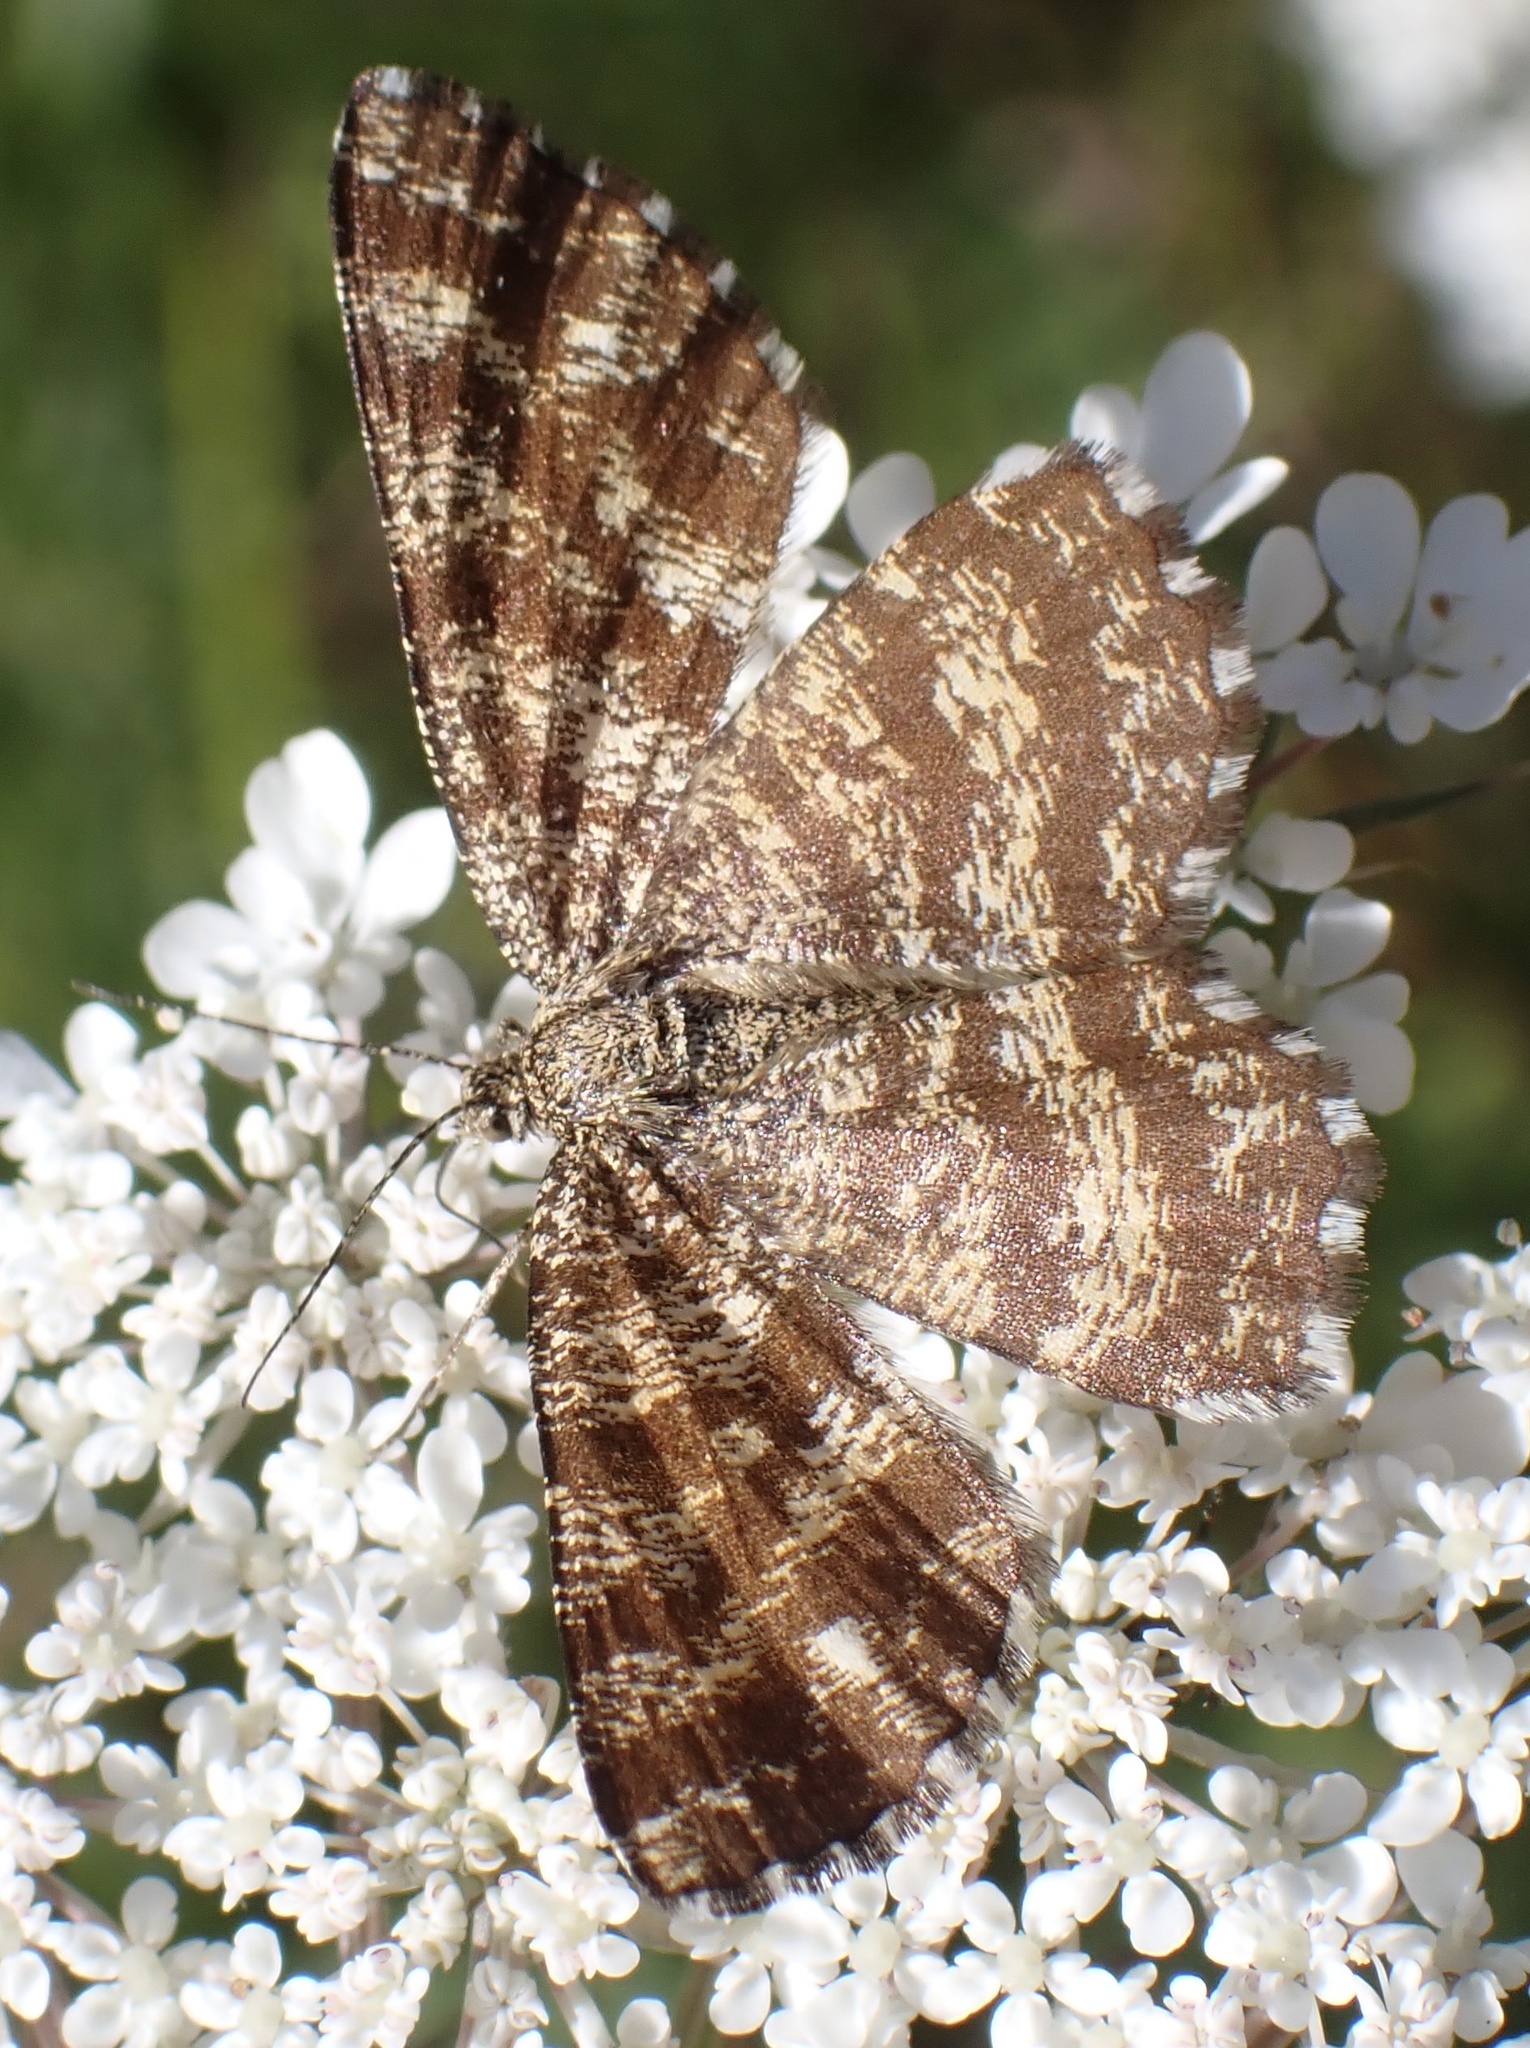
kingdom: Animalia
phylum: Arthropoda
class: Insecta
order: Lepidoptera
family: Geometridae
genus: Ematurga
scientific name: Ematurga atomaria
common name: Common heath
